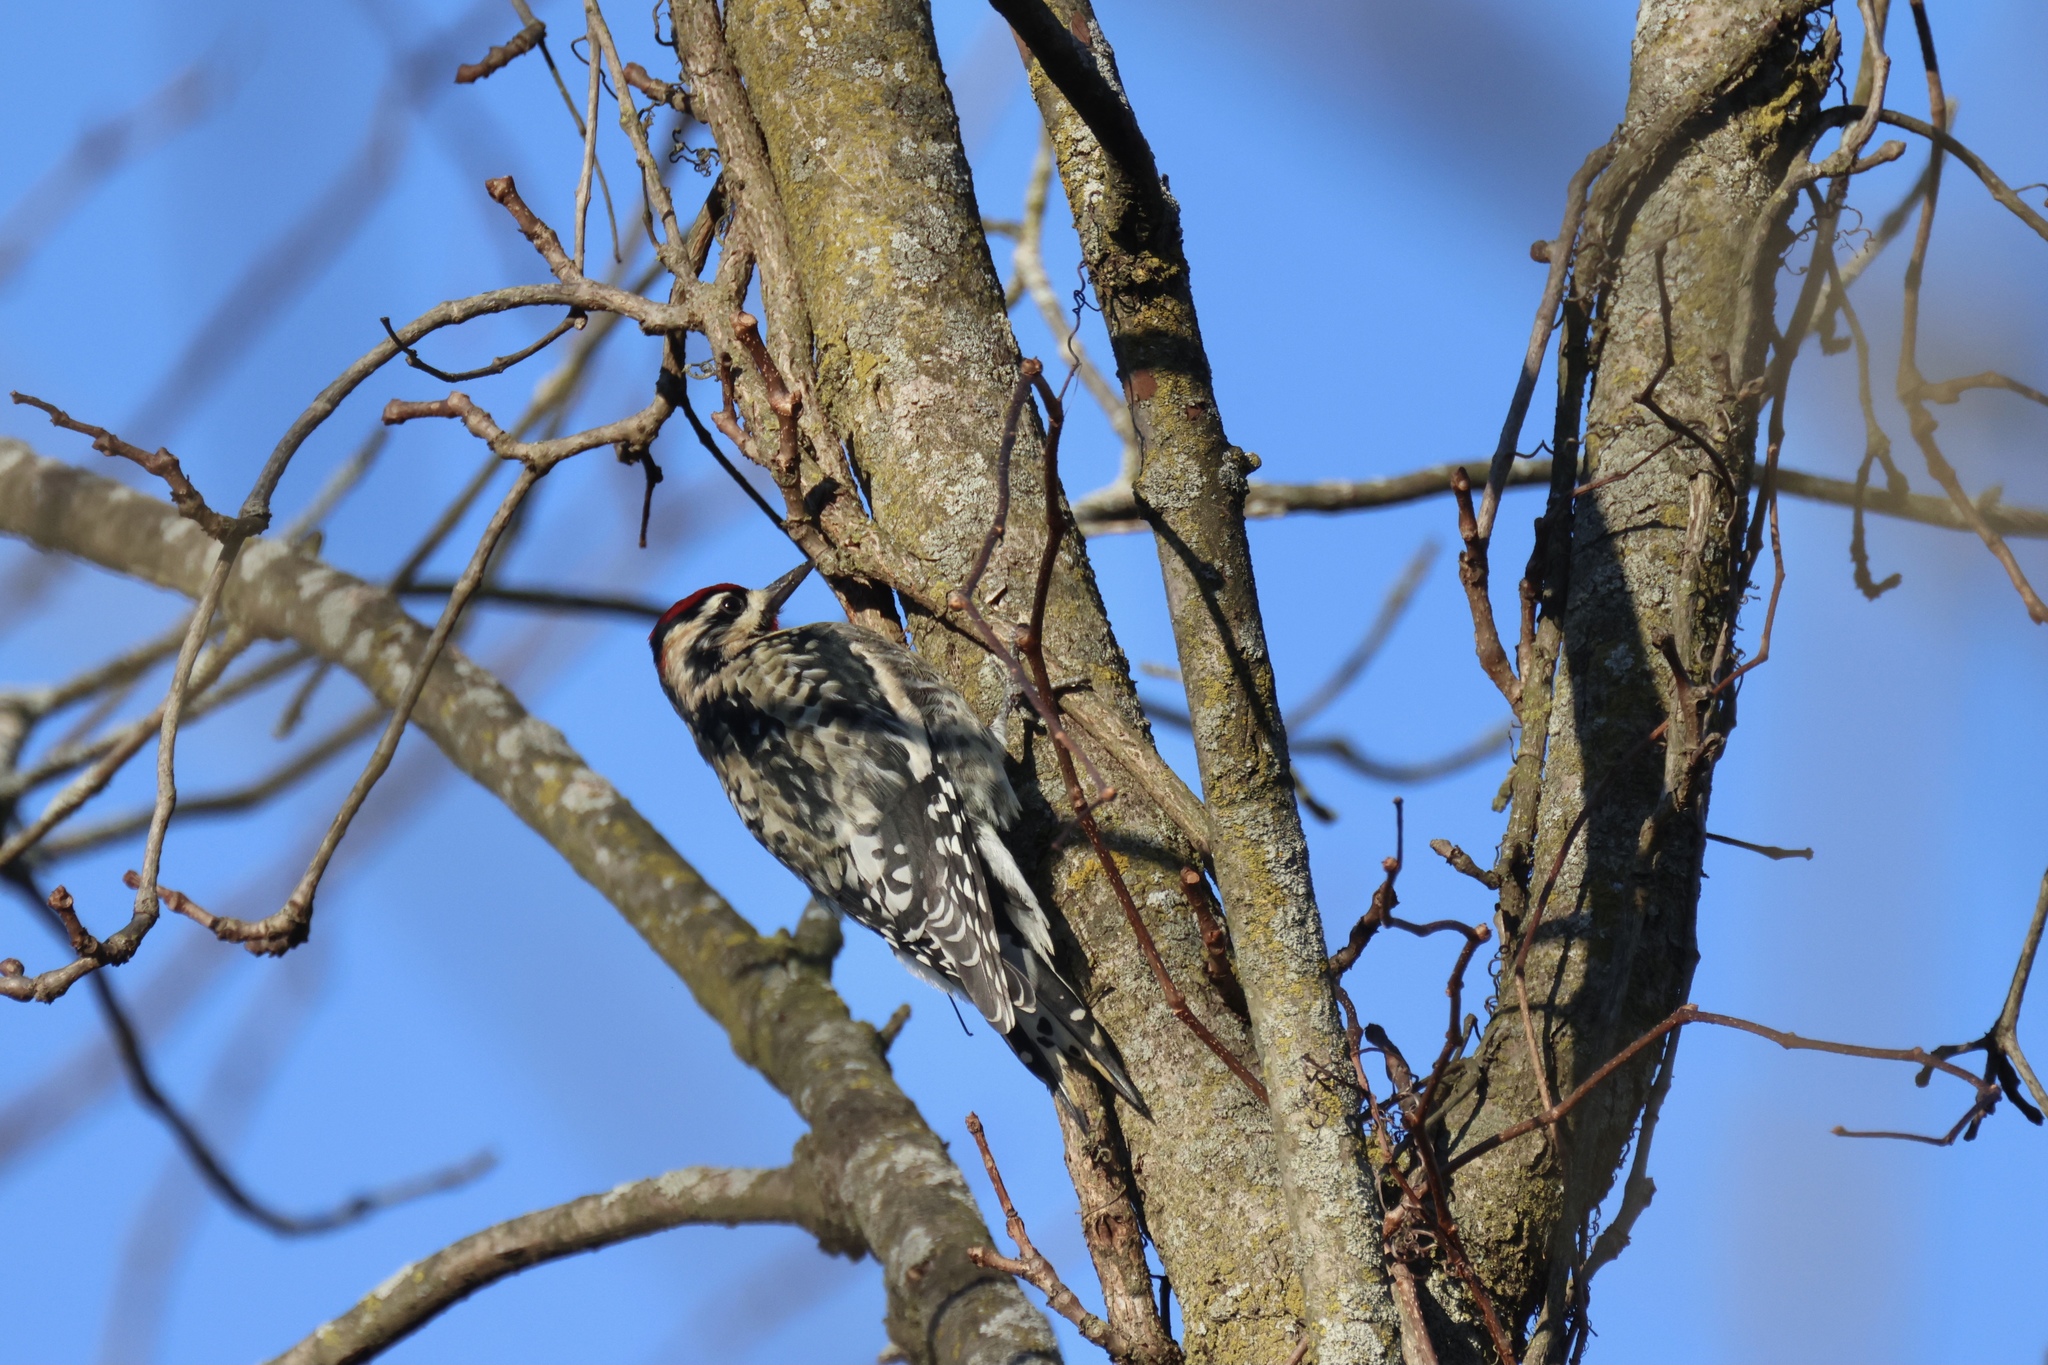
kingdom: Animalia
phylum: Chordata
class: Aves
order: Piciformes
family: Picidae
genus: Sphyrapicus
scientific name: Sphyrapicus varius
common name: Yellow-bellied sapsucker
